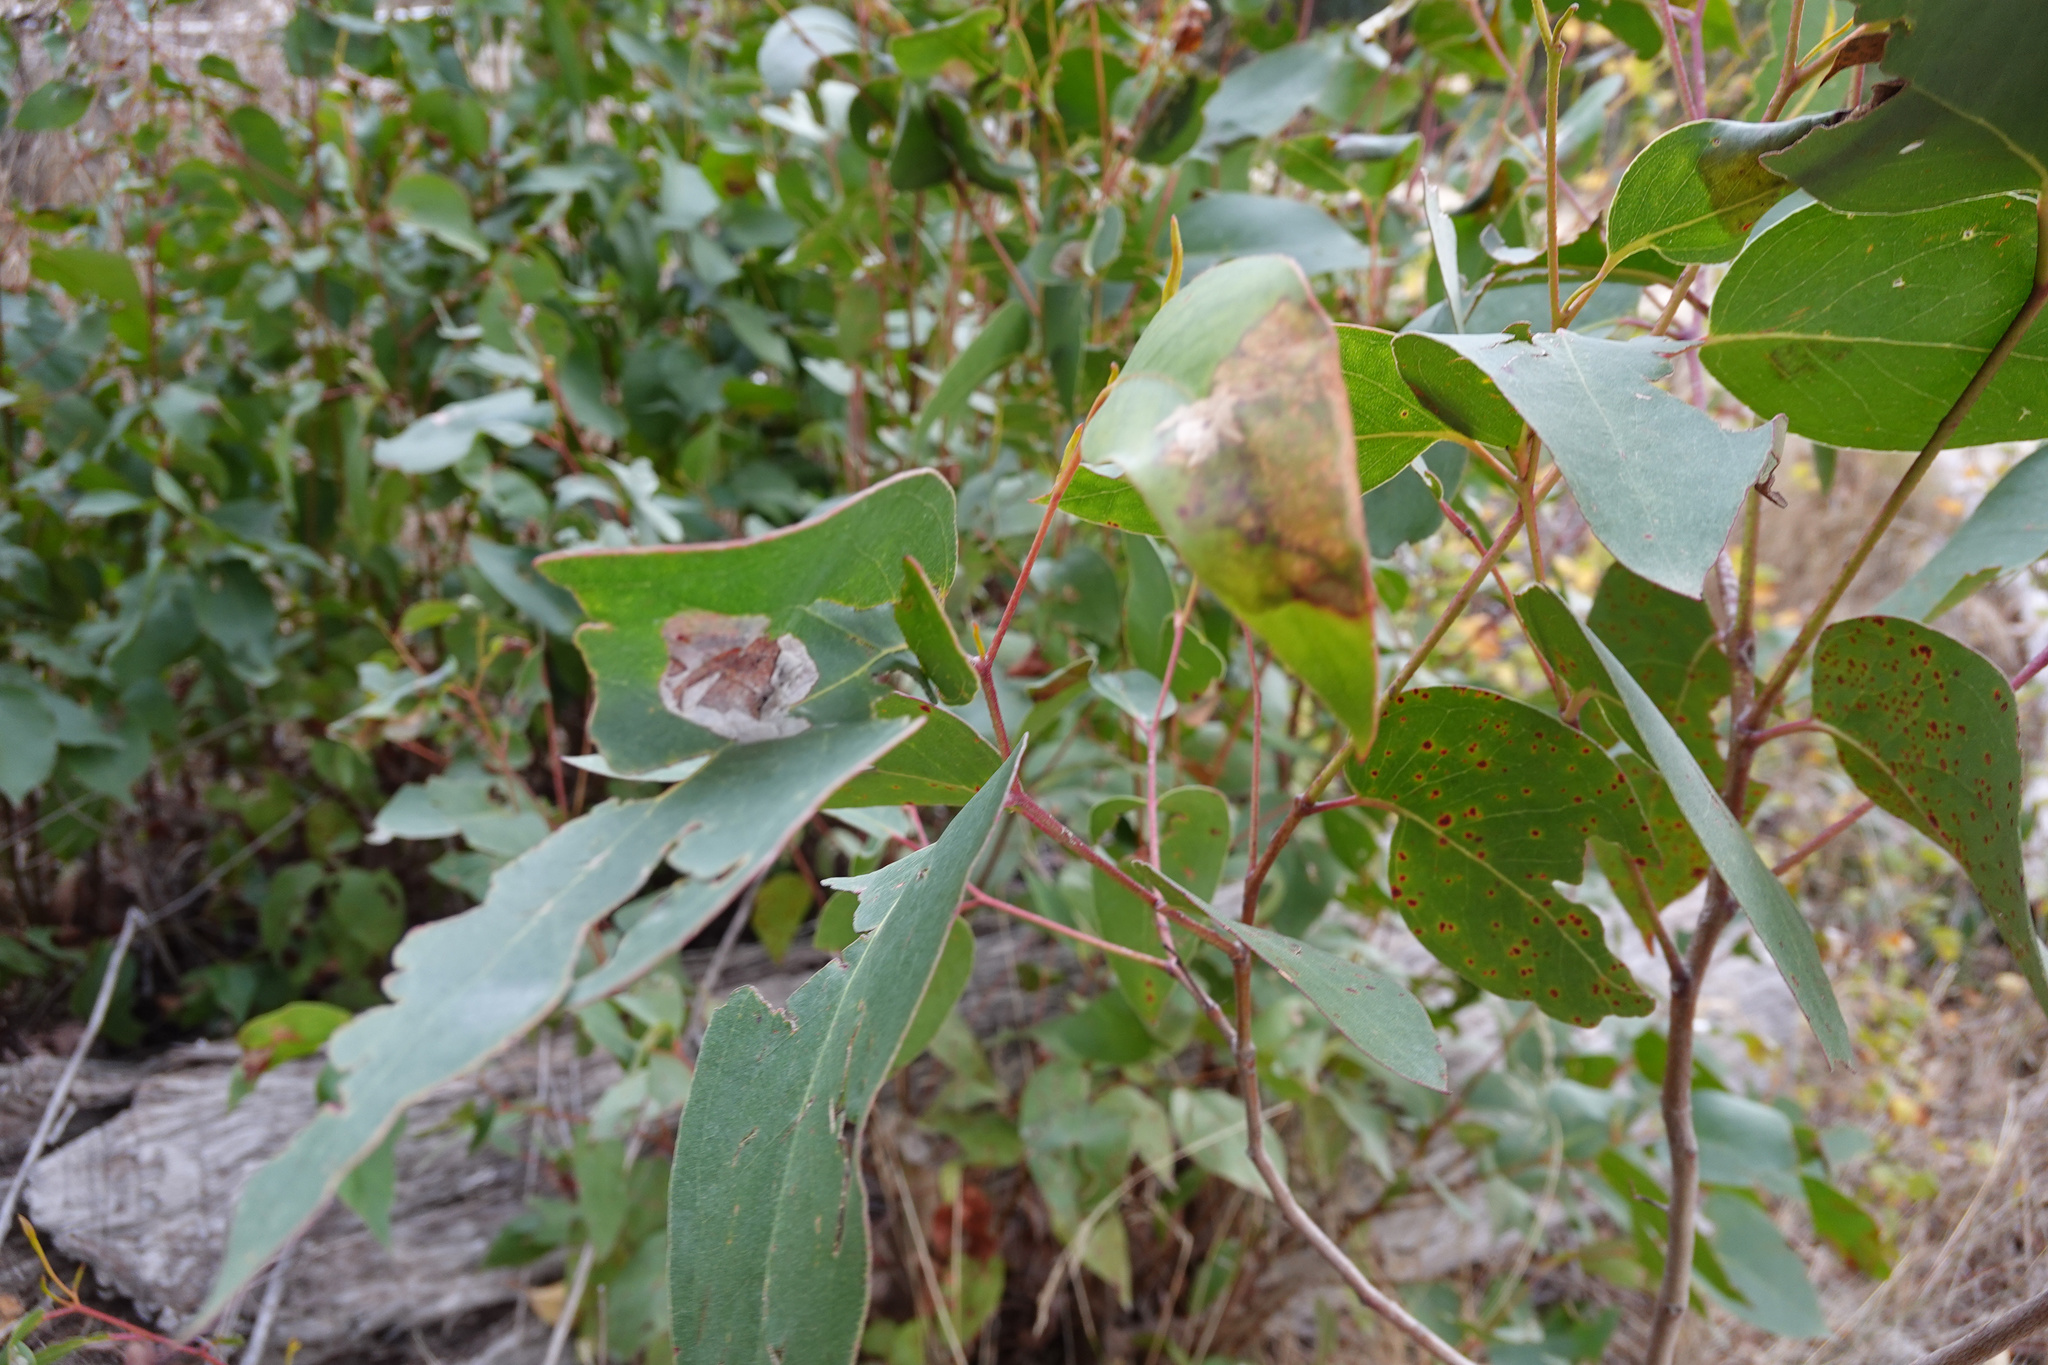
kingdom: Animalia
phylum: Arthropoda
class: Insecta
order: Hymenoptera
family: Pergidae
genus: Phylacteophaga
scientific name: Phylacteophaga froggatti
